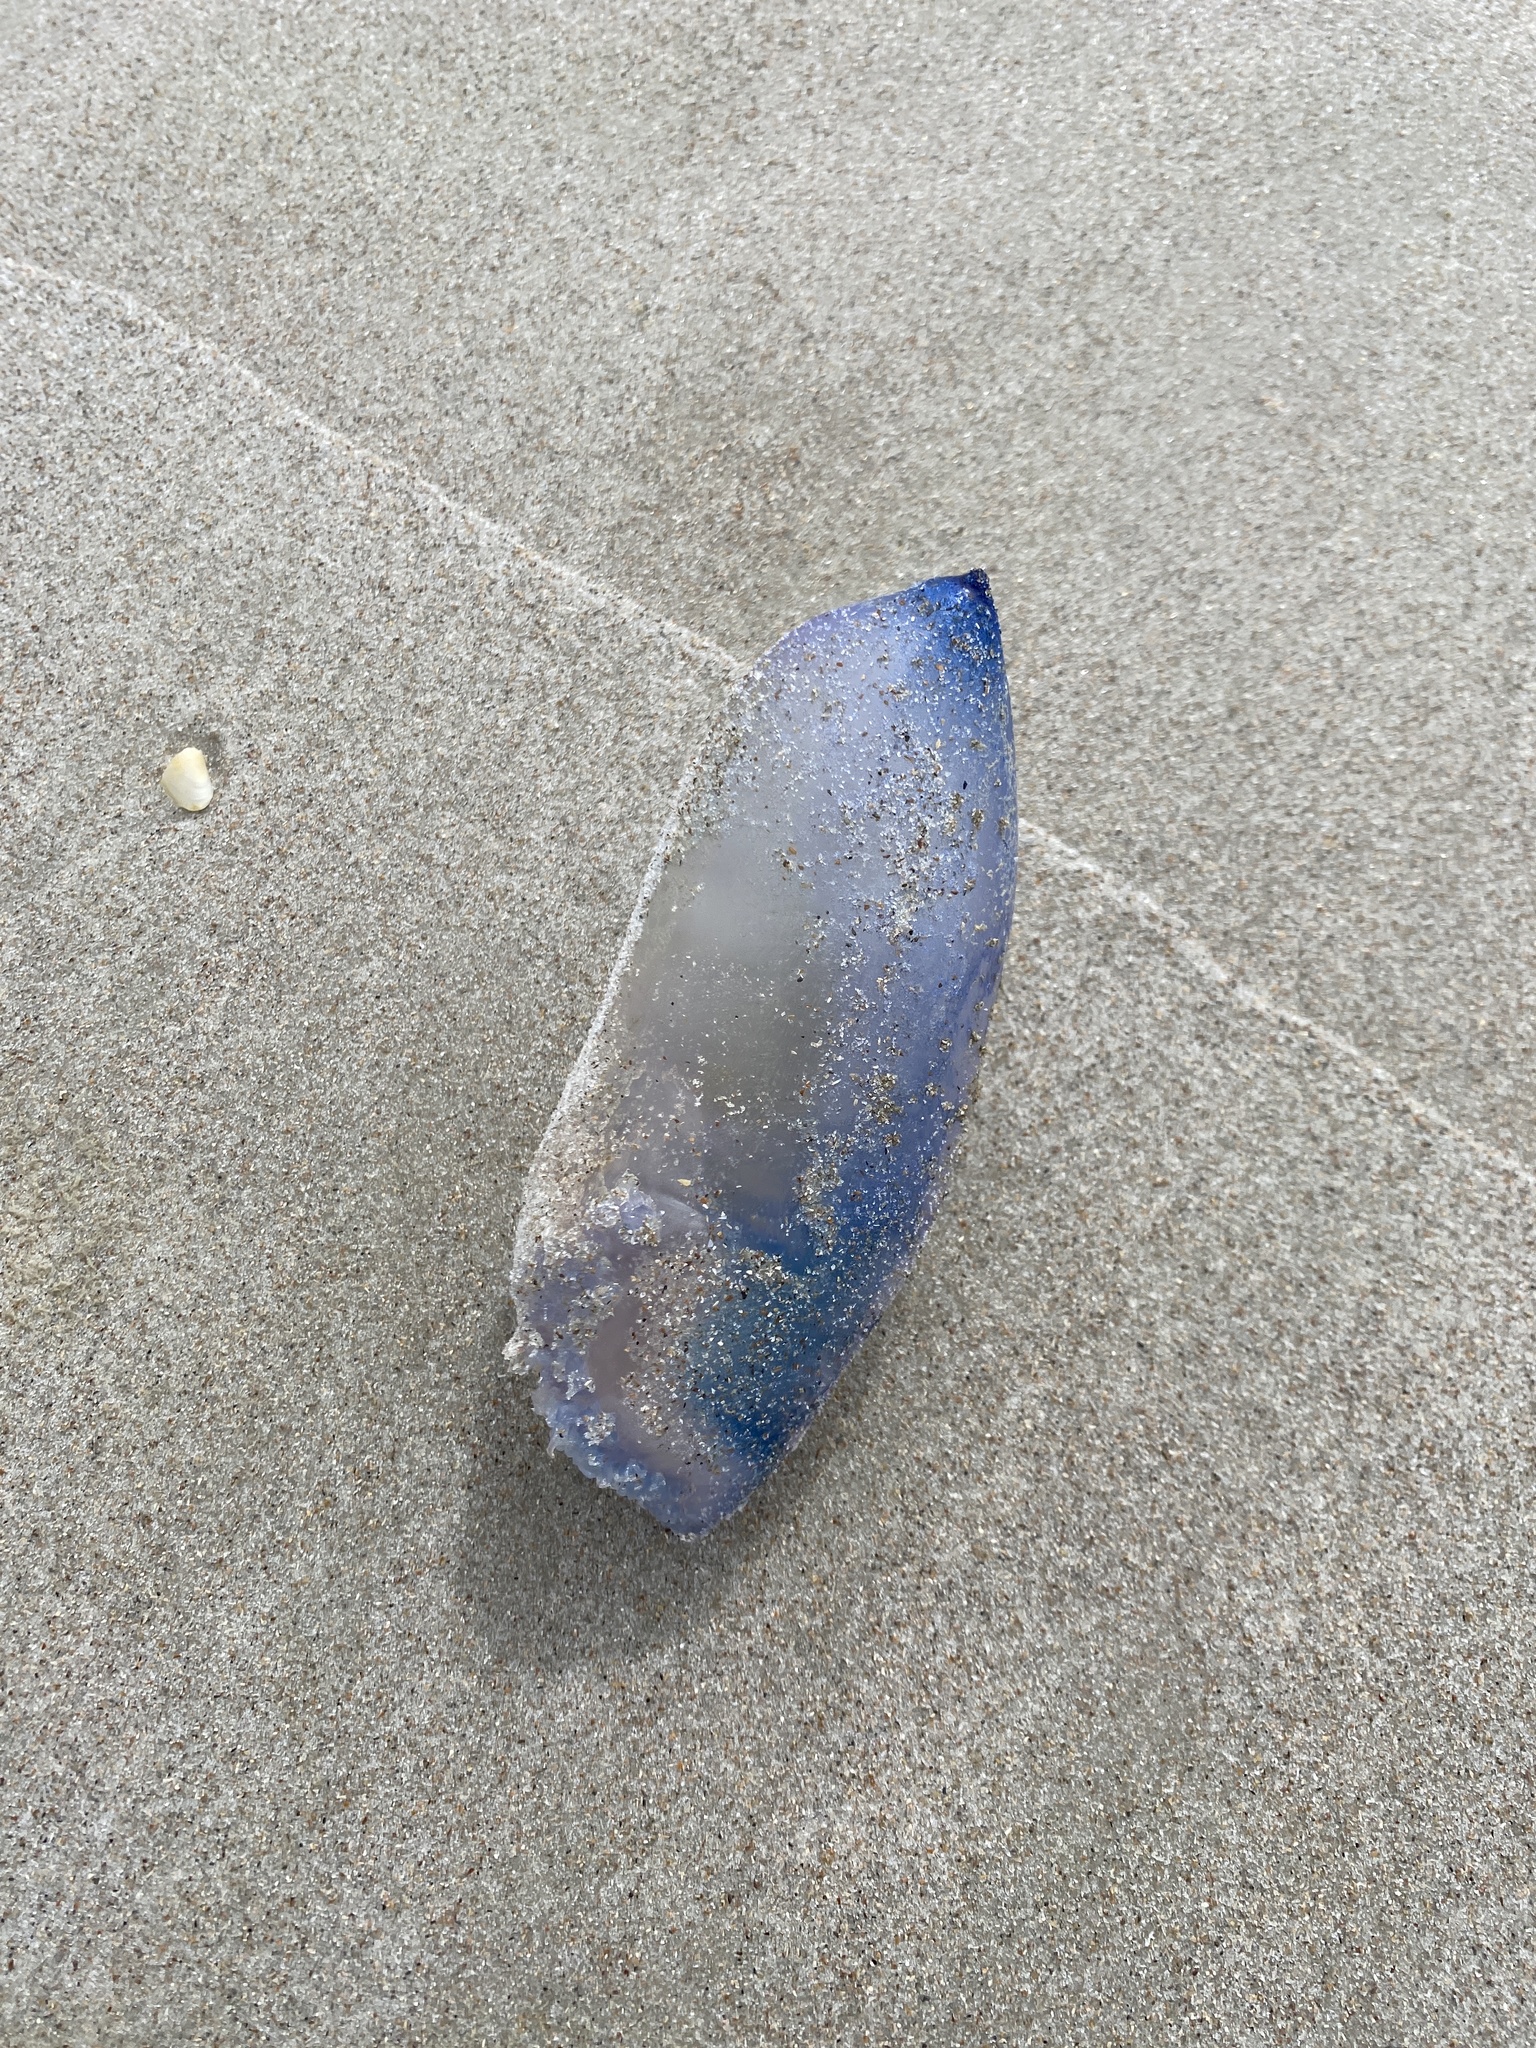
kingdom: Animalia
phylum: Cnidaria
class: Hydrozoa
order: Siphonophorae
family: Physaliidae
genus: Physalia
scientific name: Physalia physalis
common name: Portuguese man-of-war
